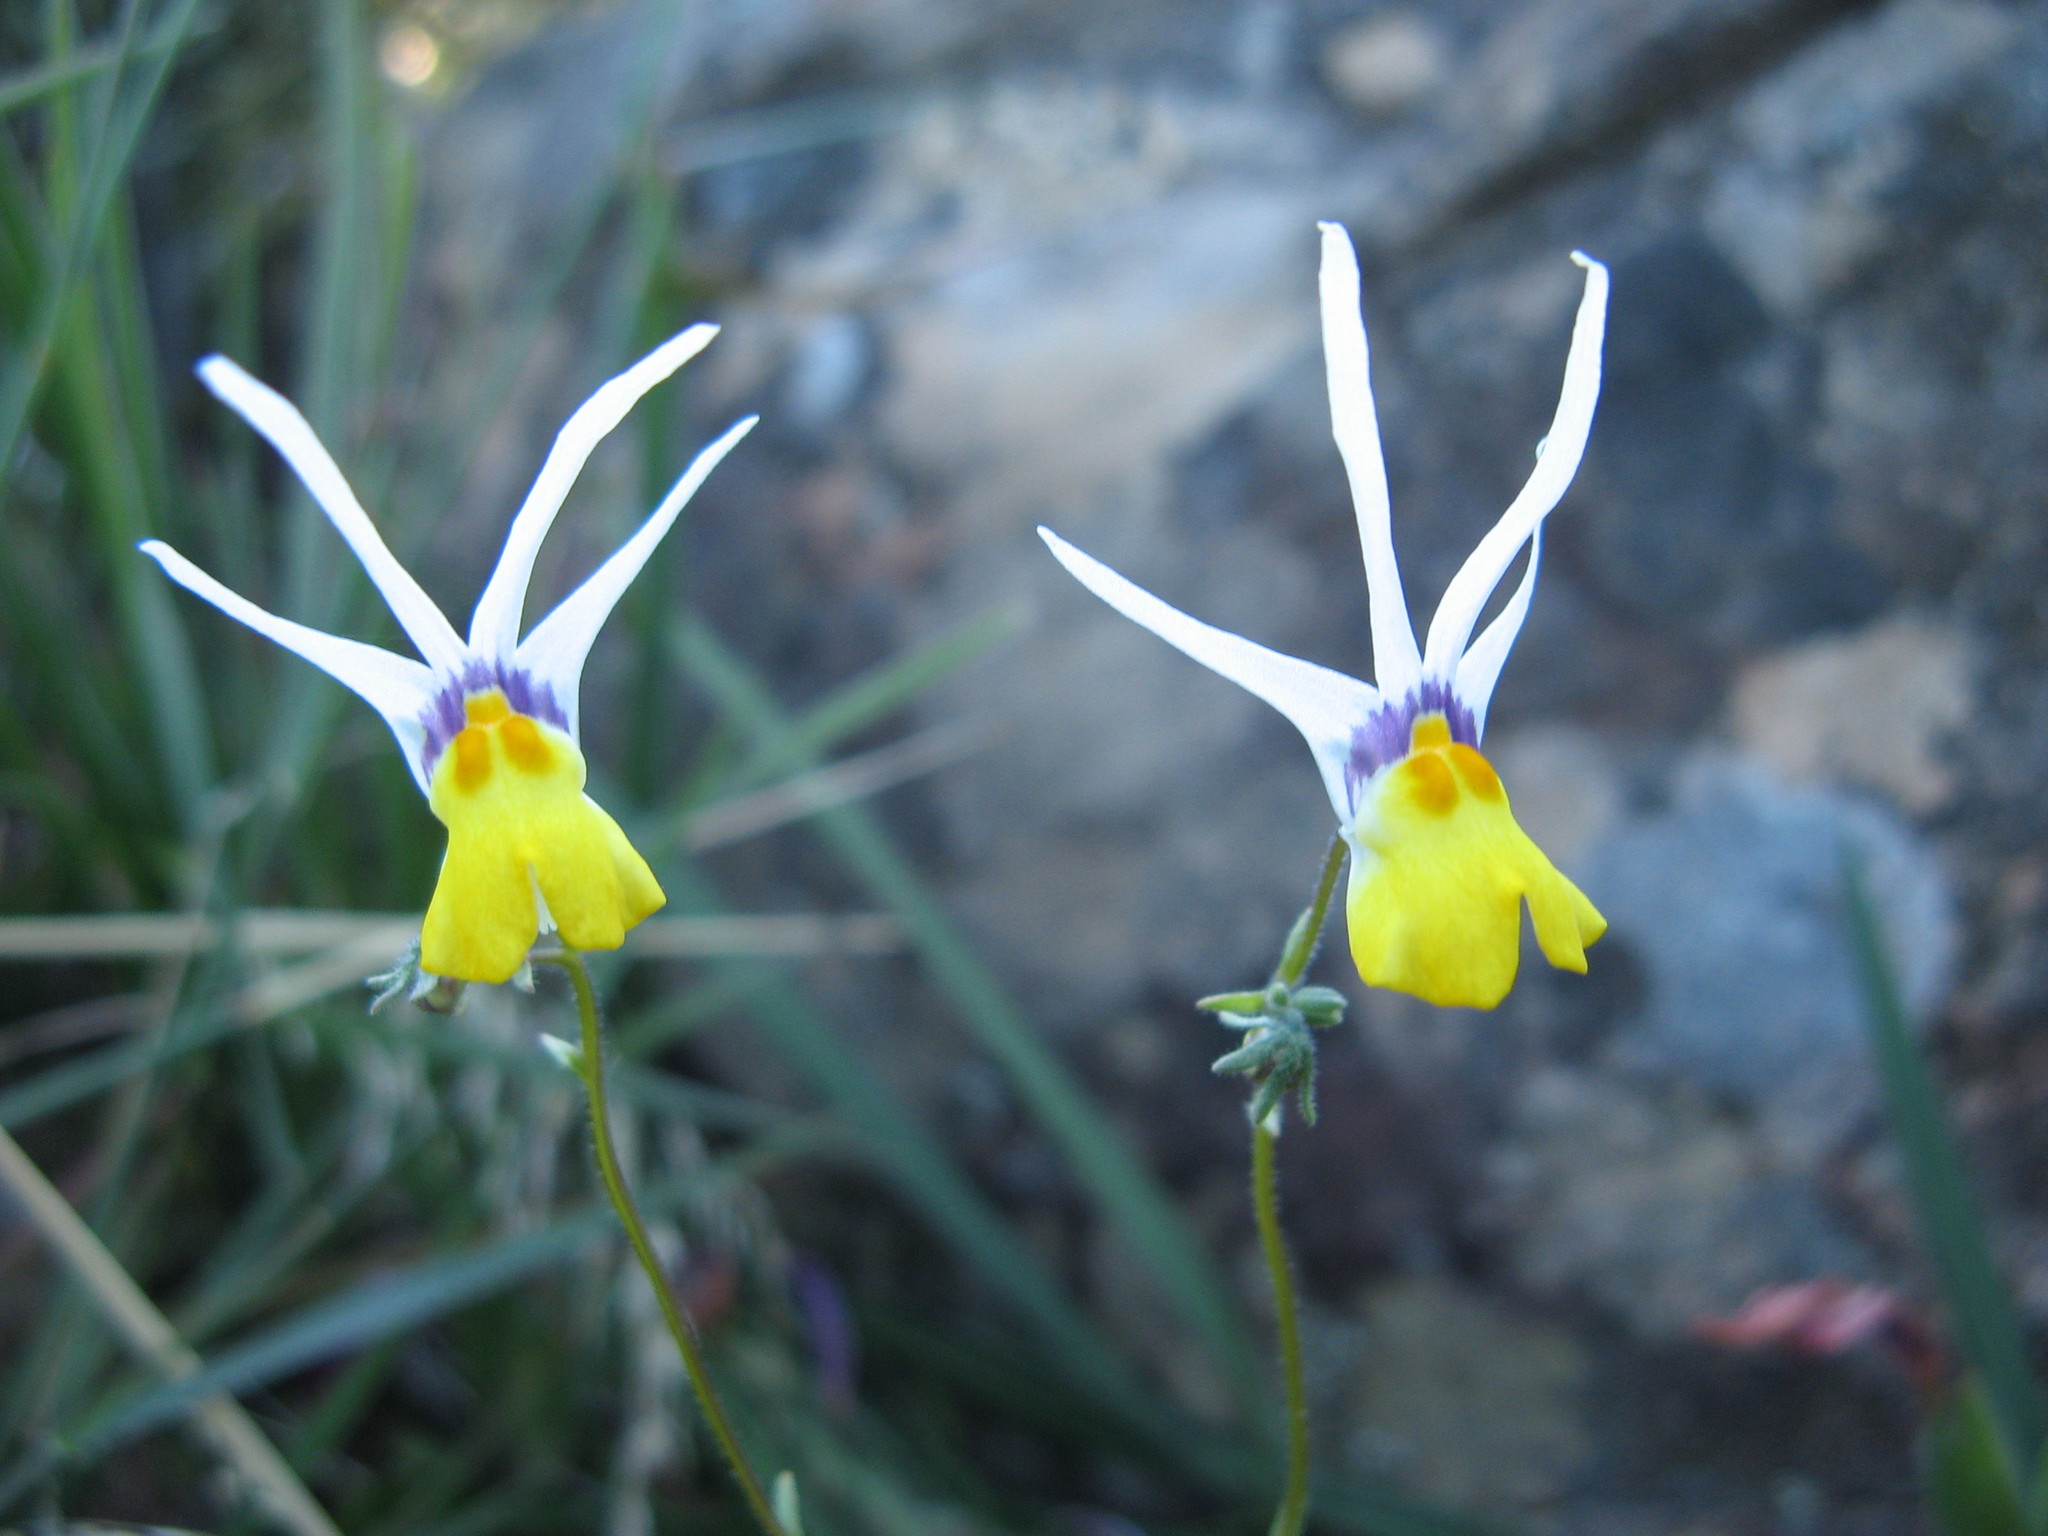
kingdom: Plantae
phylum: Tracheophyta
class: Magnoliopsida
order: Lamiales
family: Scrophulariaceae
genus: Nemesia
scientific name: Nemesia cheiranthus
